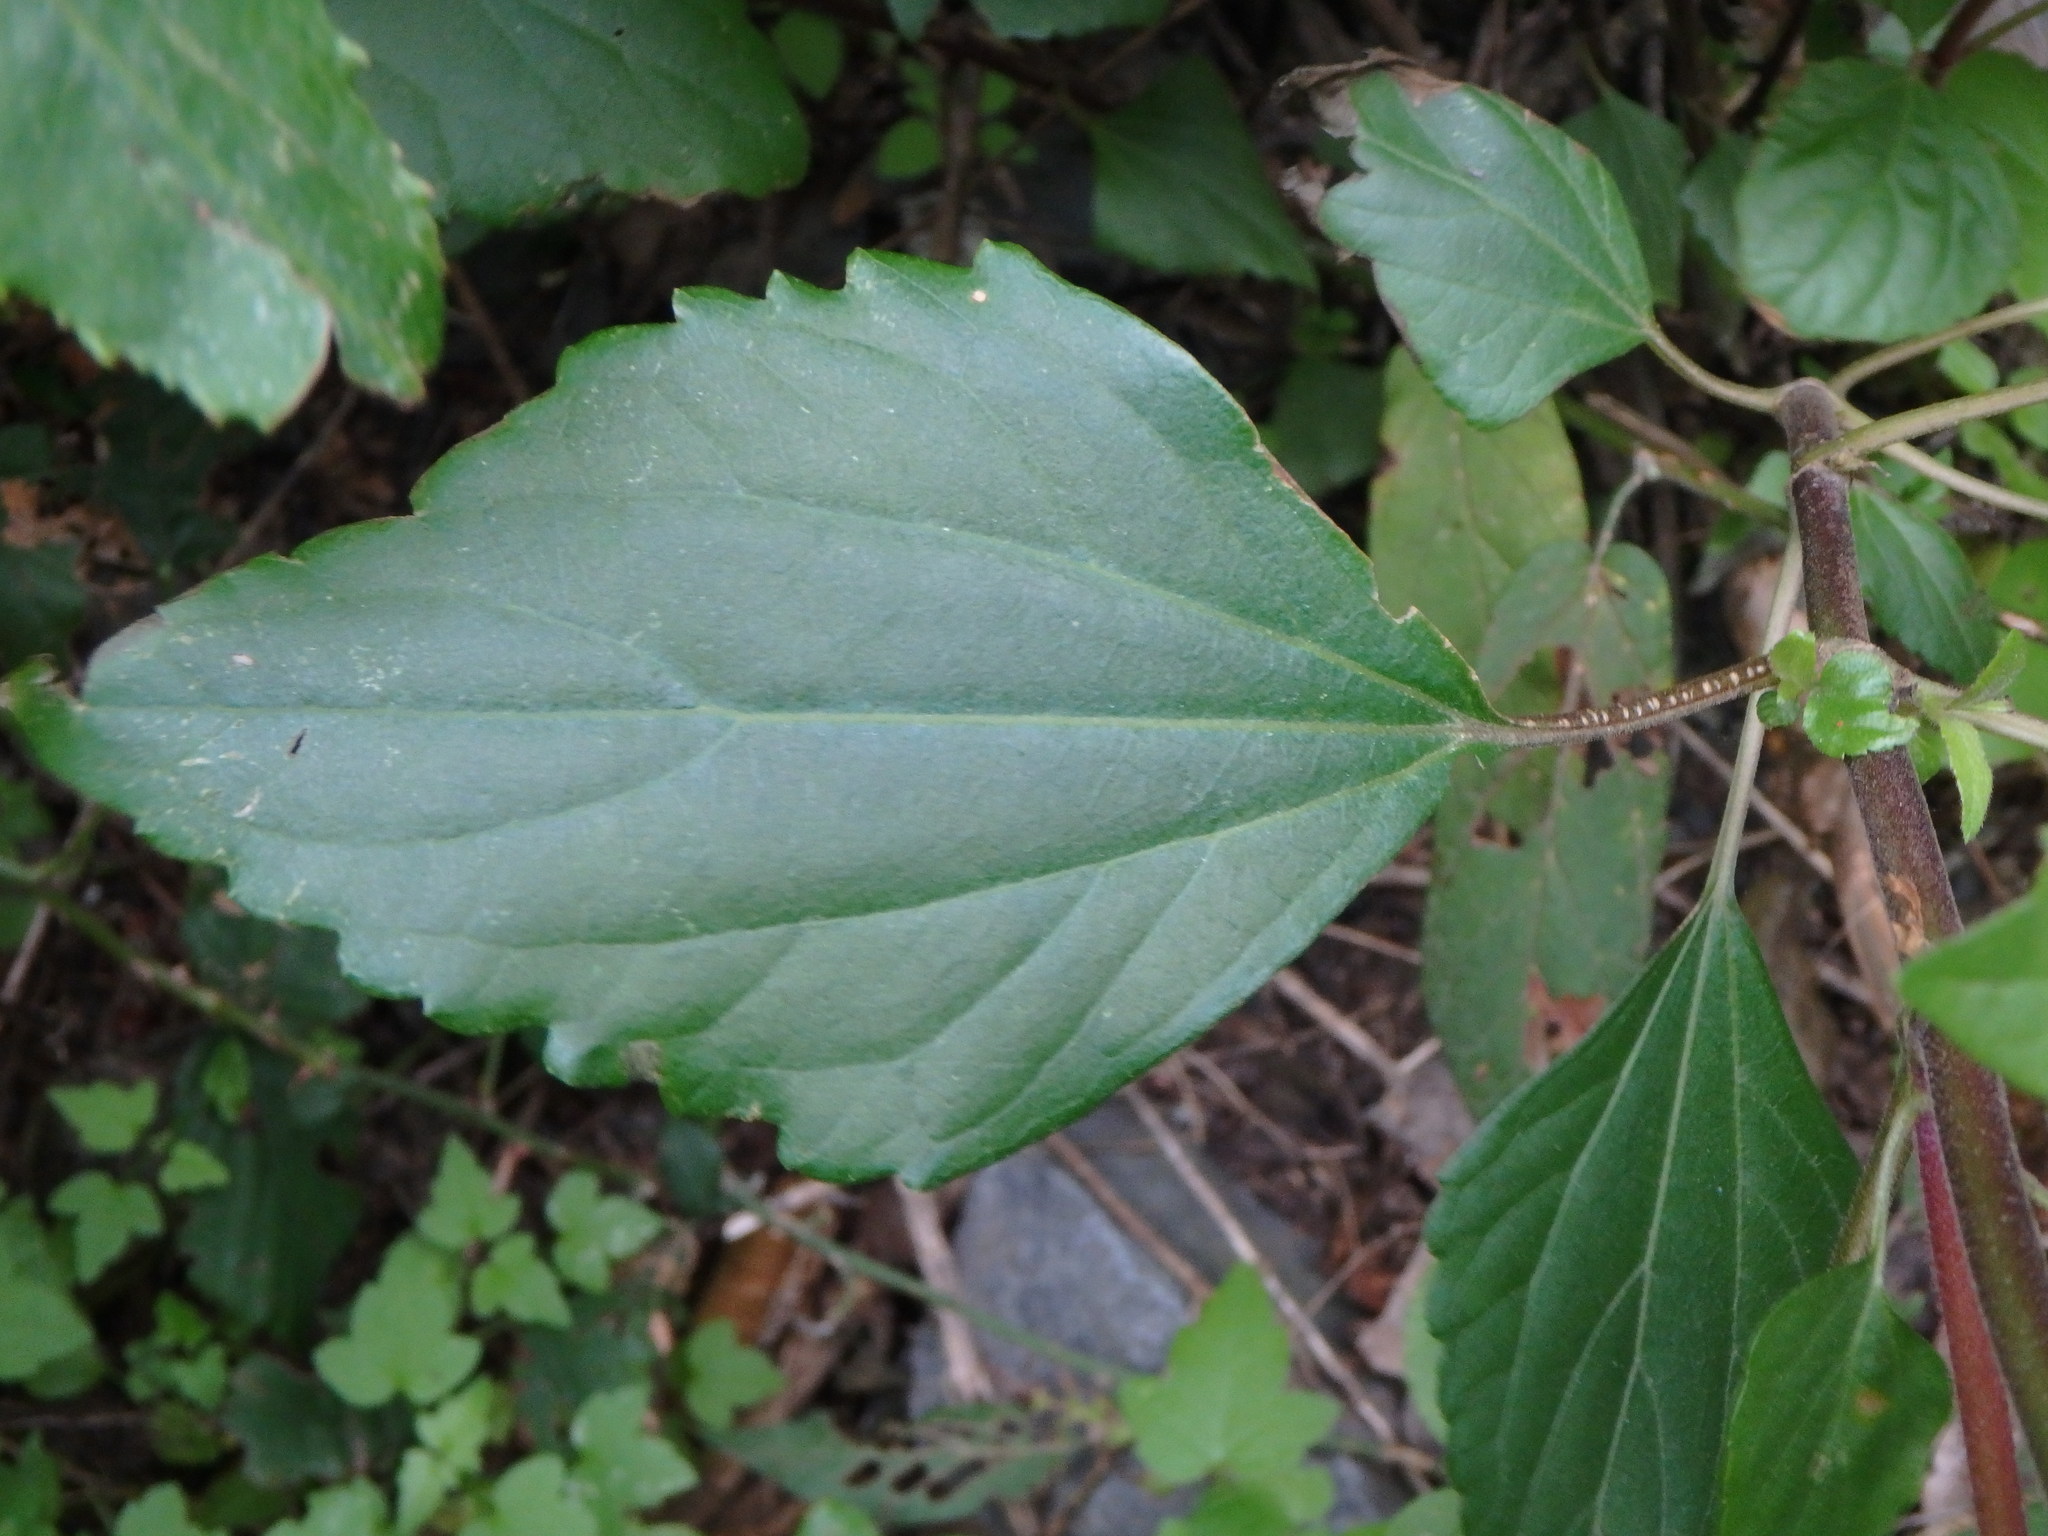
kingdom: Plantae
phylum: Tracheophyta
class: Magnoliopsida
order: Asterales
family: Asteraceae
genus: Ageratina
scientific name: Ageratina adenophora
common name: Sticky snakeroot
